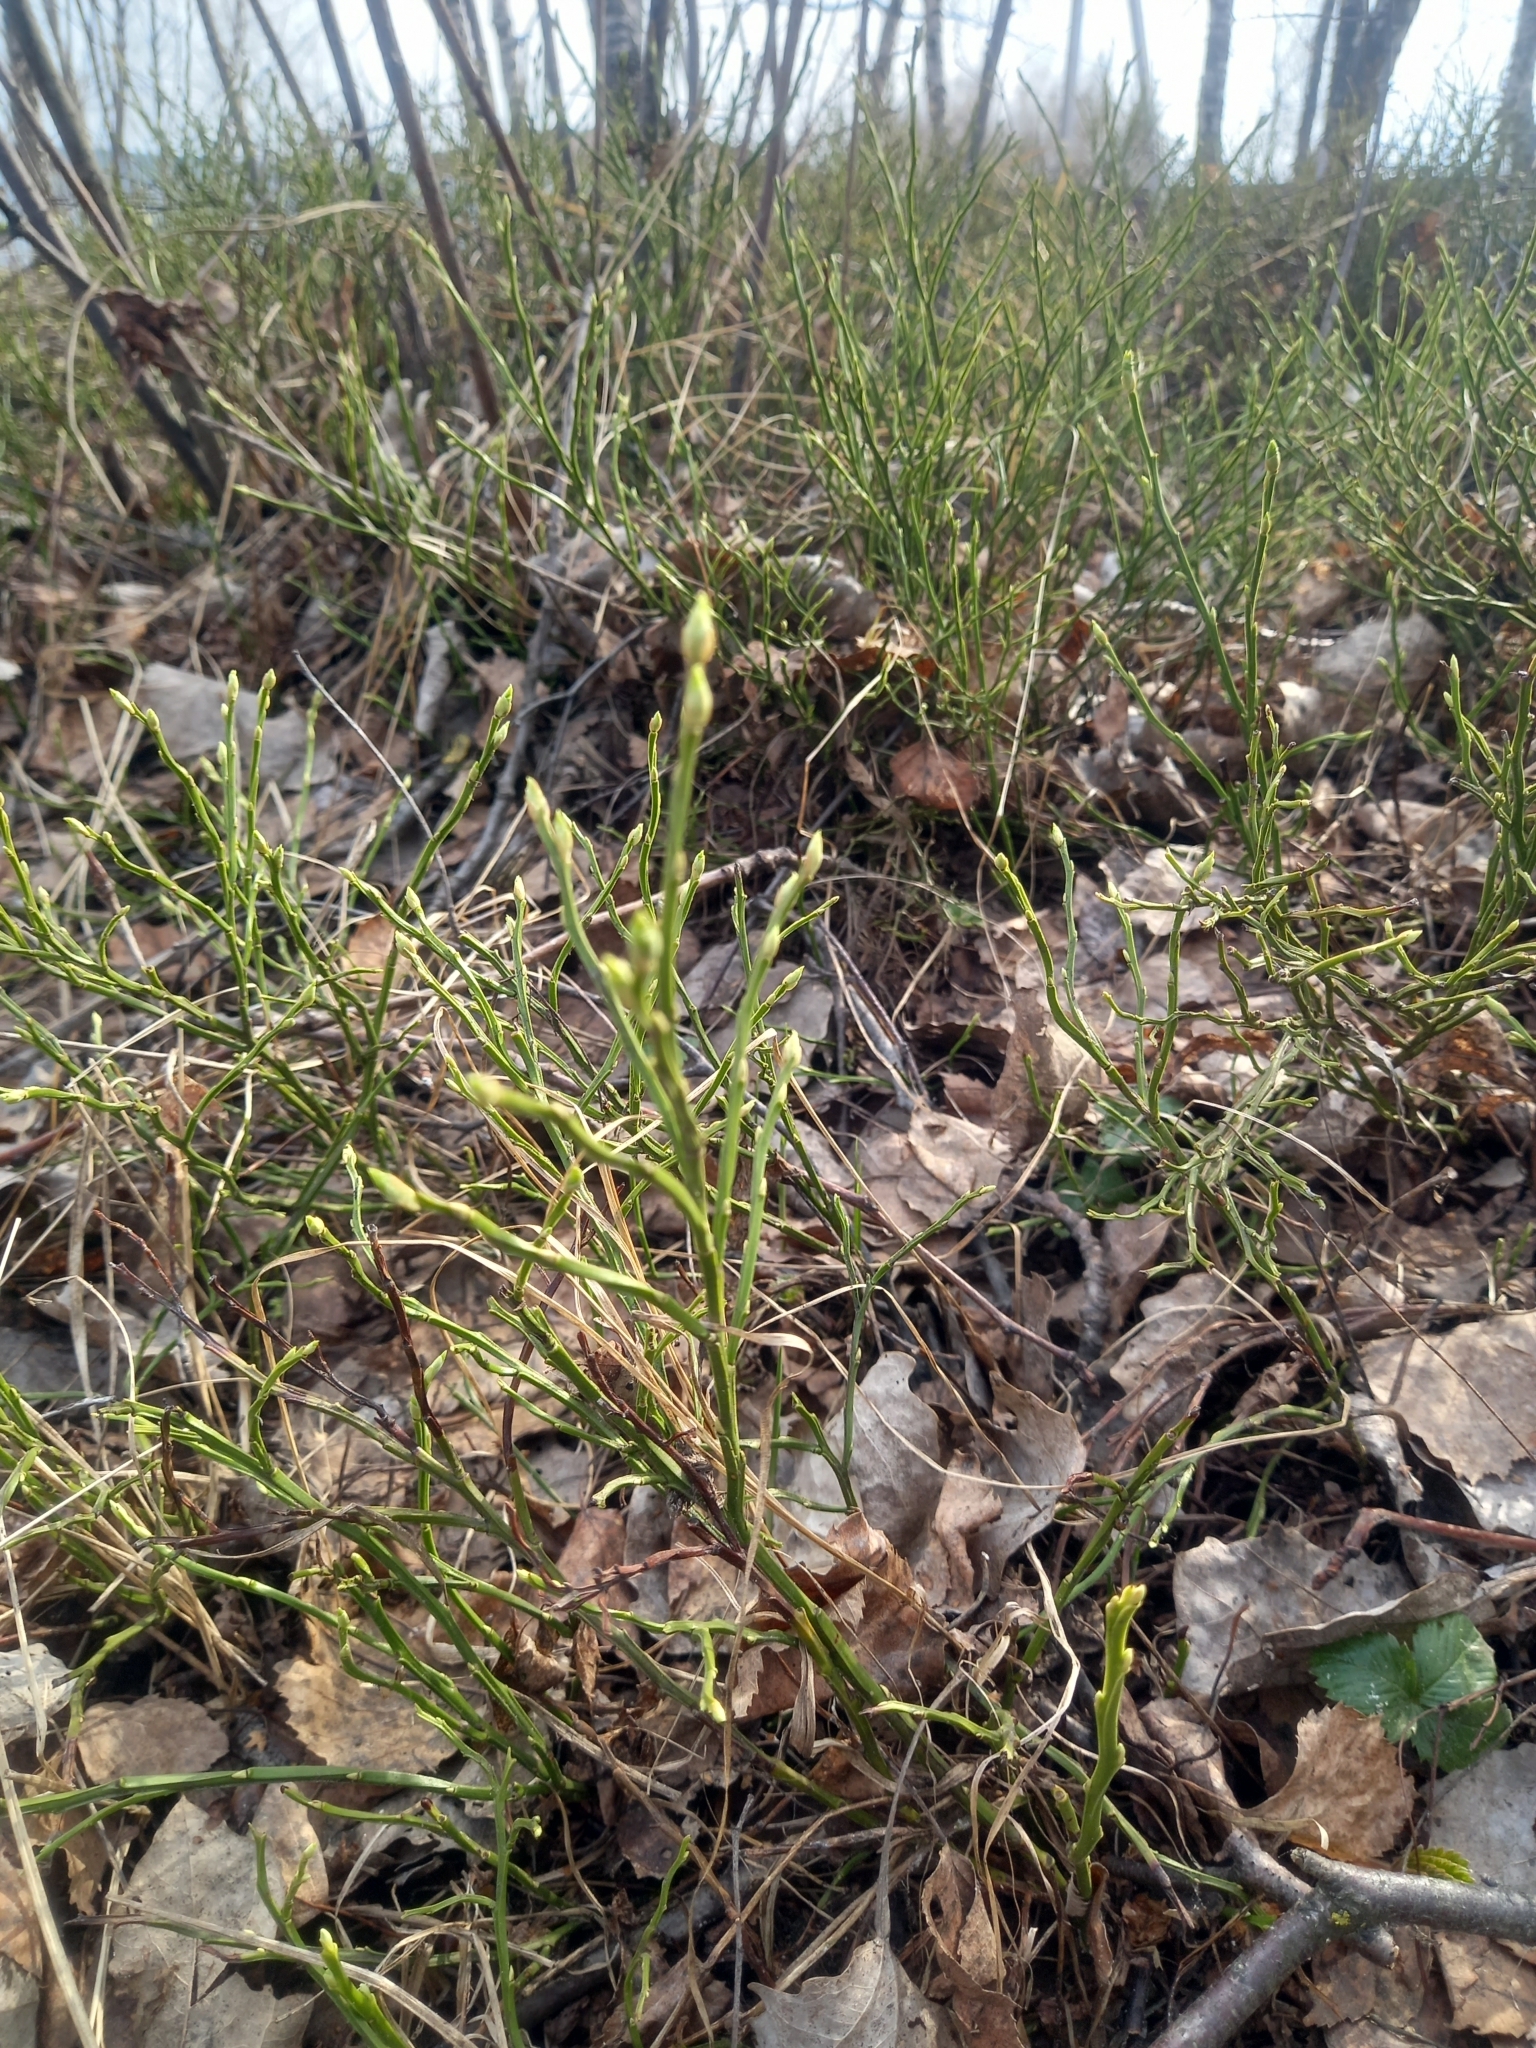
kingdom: Plantae
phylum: Tracheophyta
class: Magnoliopsida
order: Ericales
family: Ericaceae
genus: Vaccinium
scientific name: Vaccinium myrtillus
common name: Bilberry
